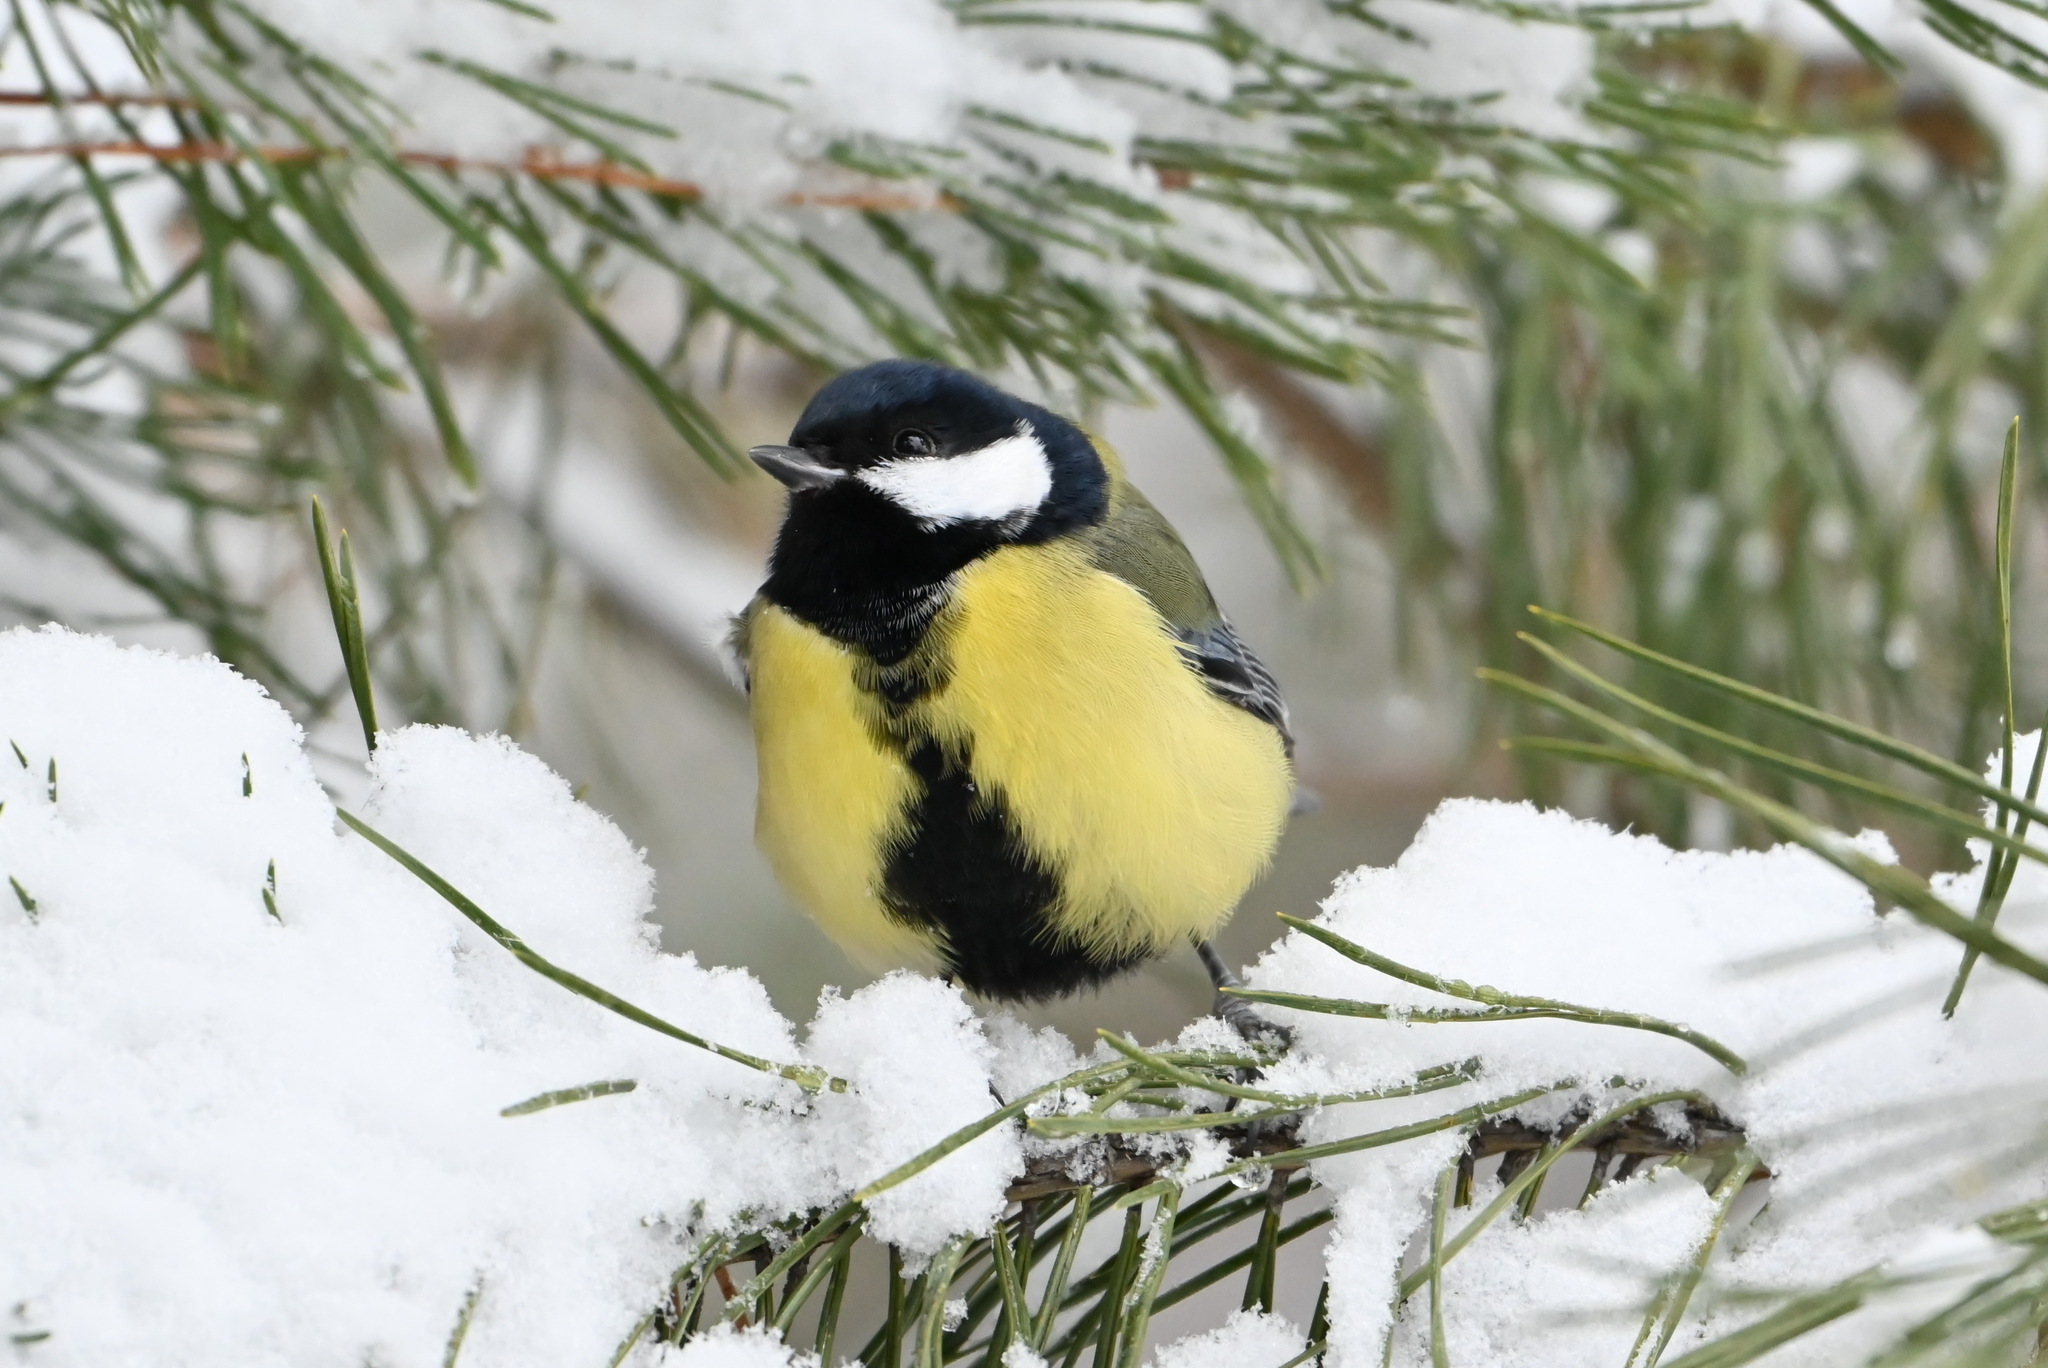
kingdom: Animalia
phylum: Chordata
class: Aves
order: Passeriformes
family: Paridae
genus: Parus
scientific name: Parus major
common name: Great tit
